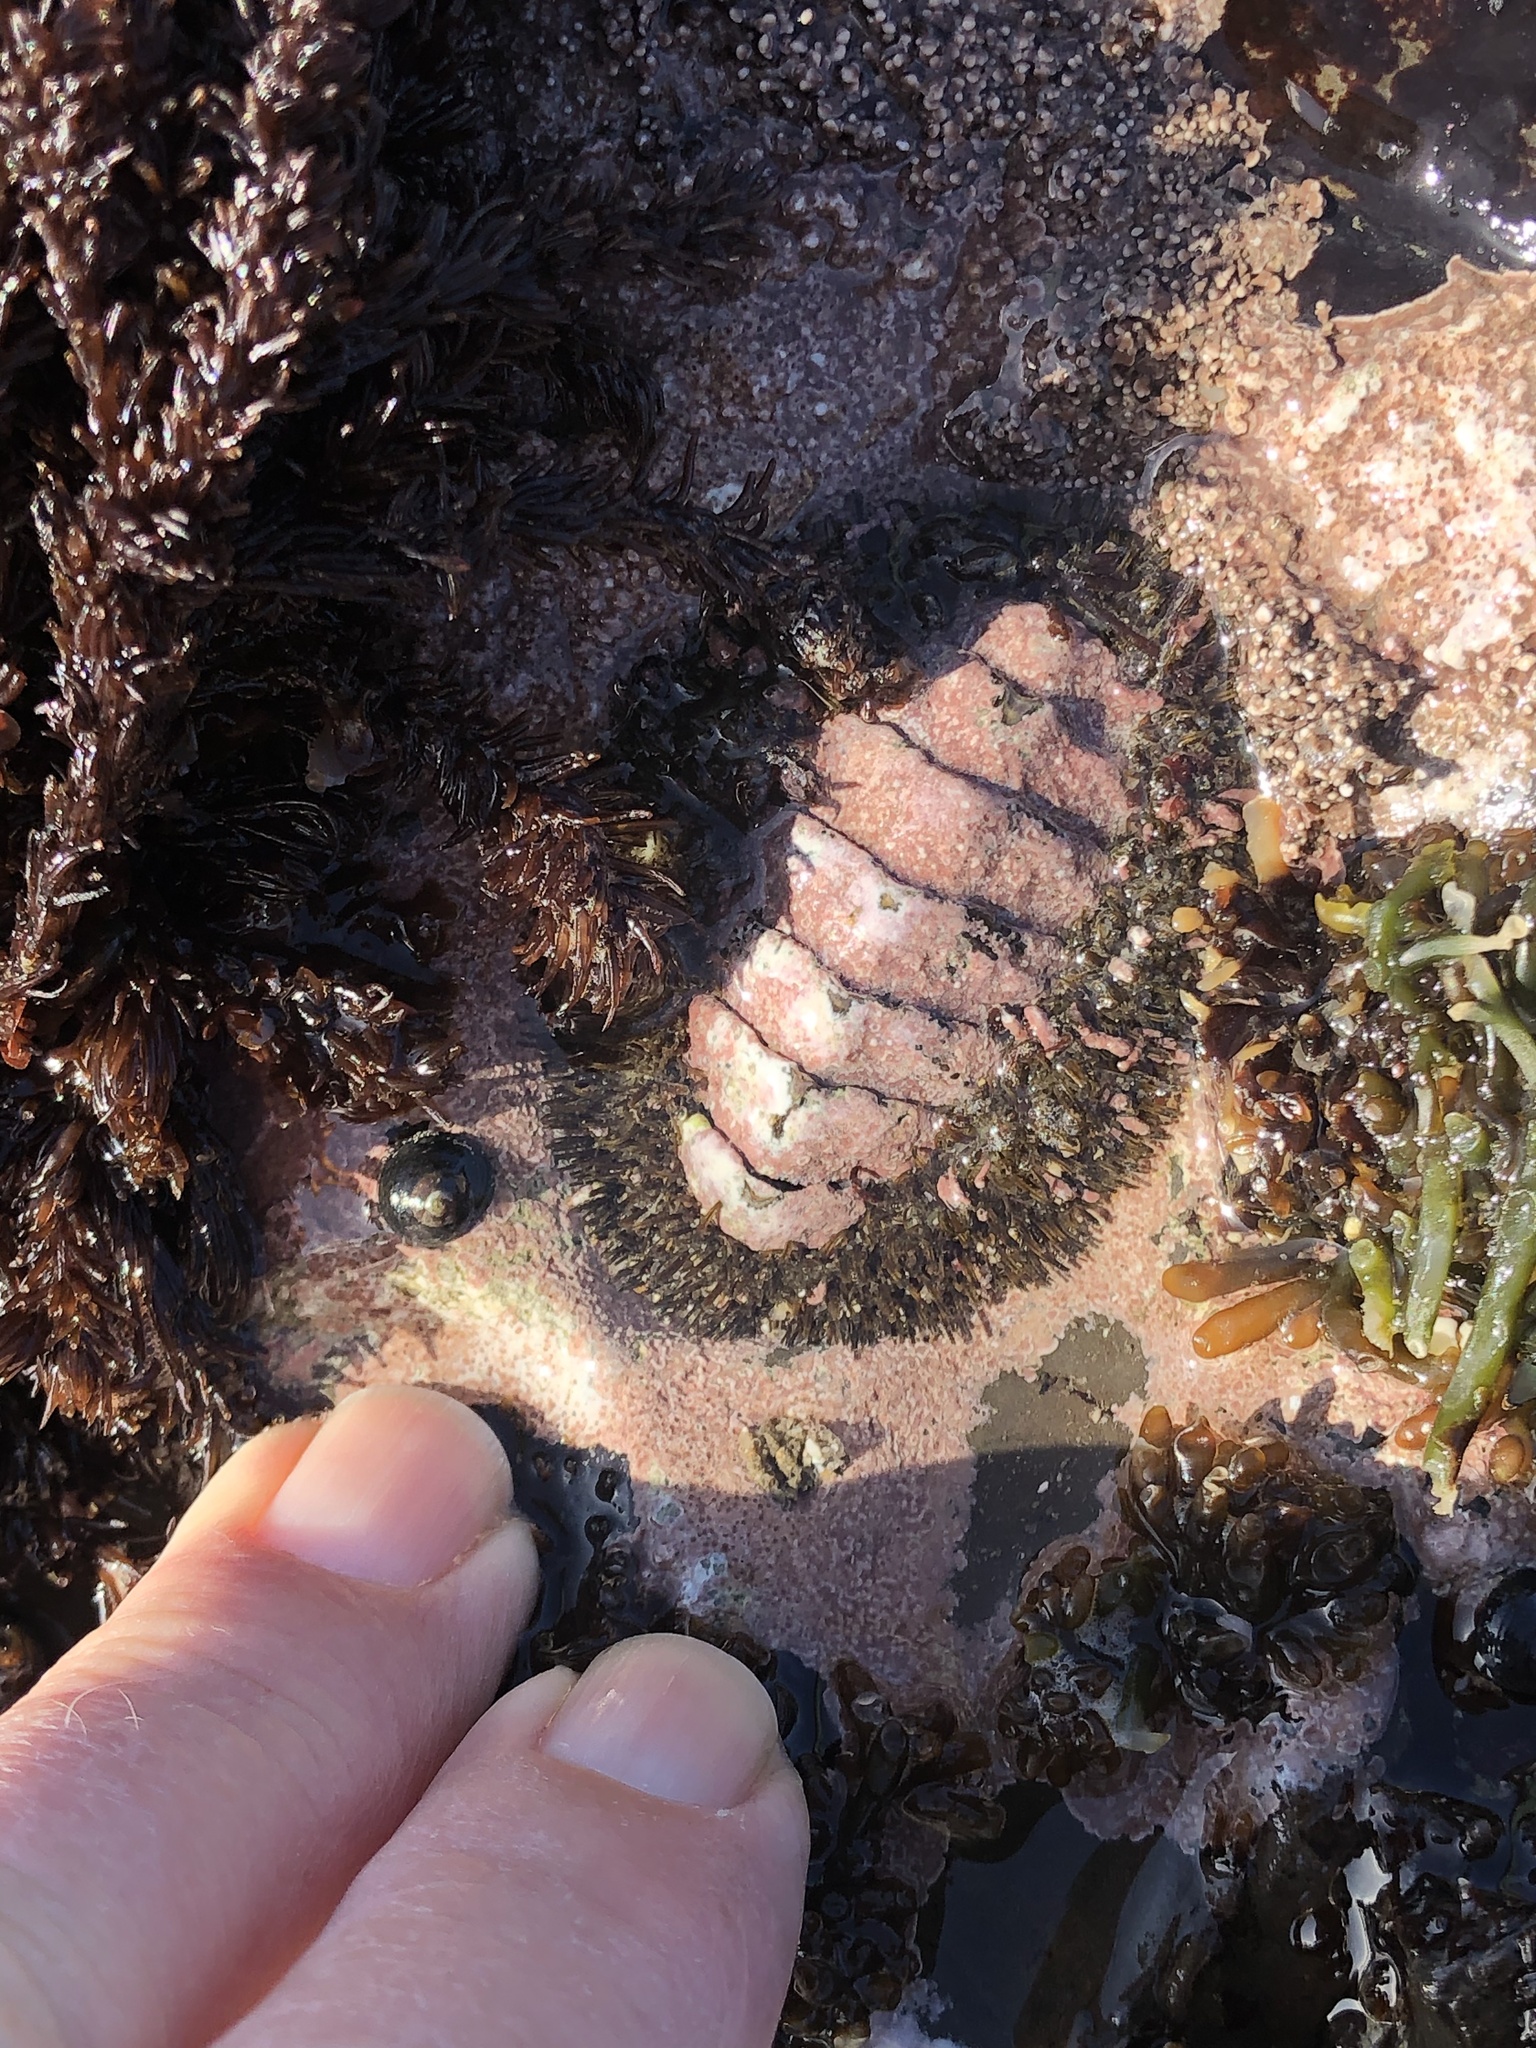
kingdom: Animalia
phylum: Mollusca
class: Polyplacophora
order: Chitonida
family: Mopaliidae
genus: Mopalia
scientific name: Mopalia muscosa
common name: Mossy chiton
